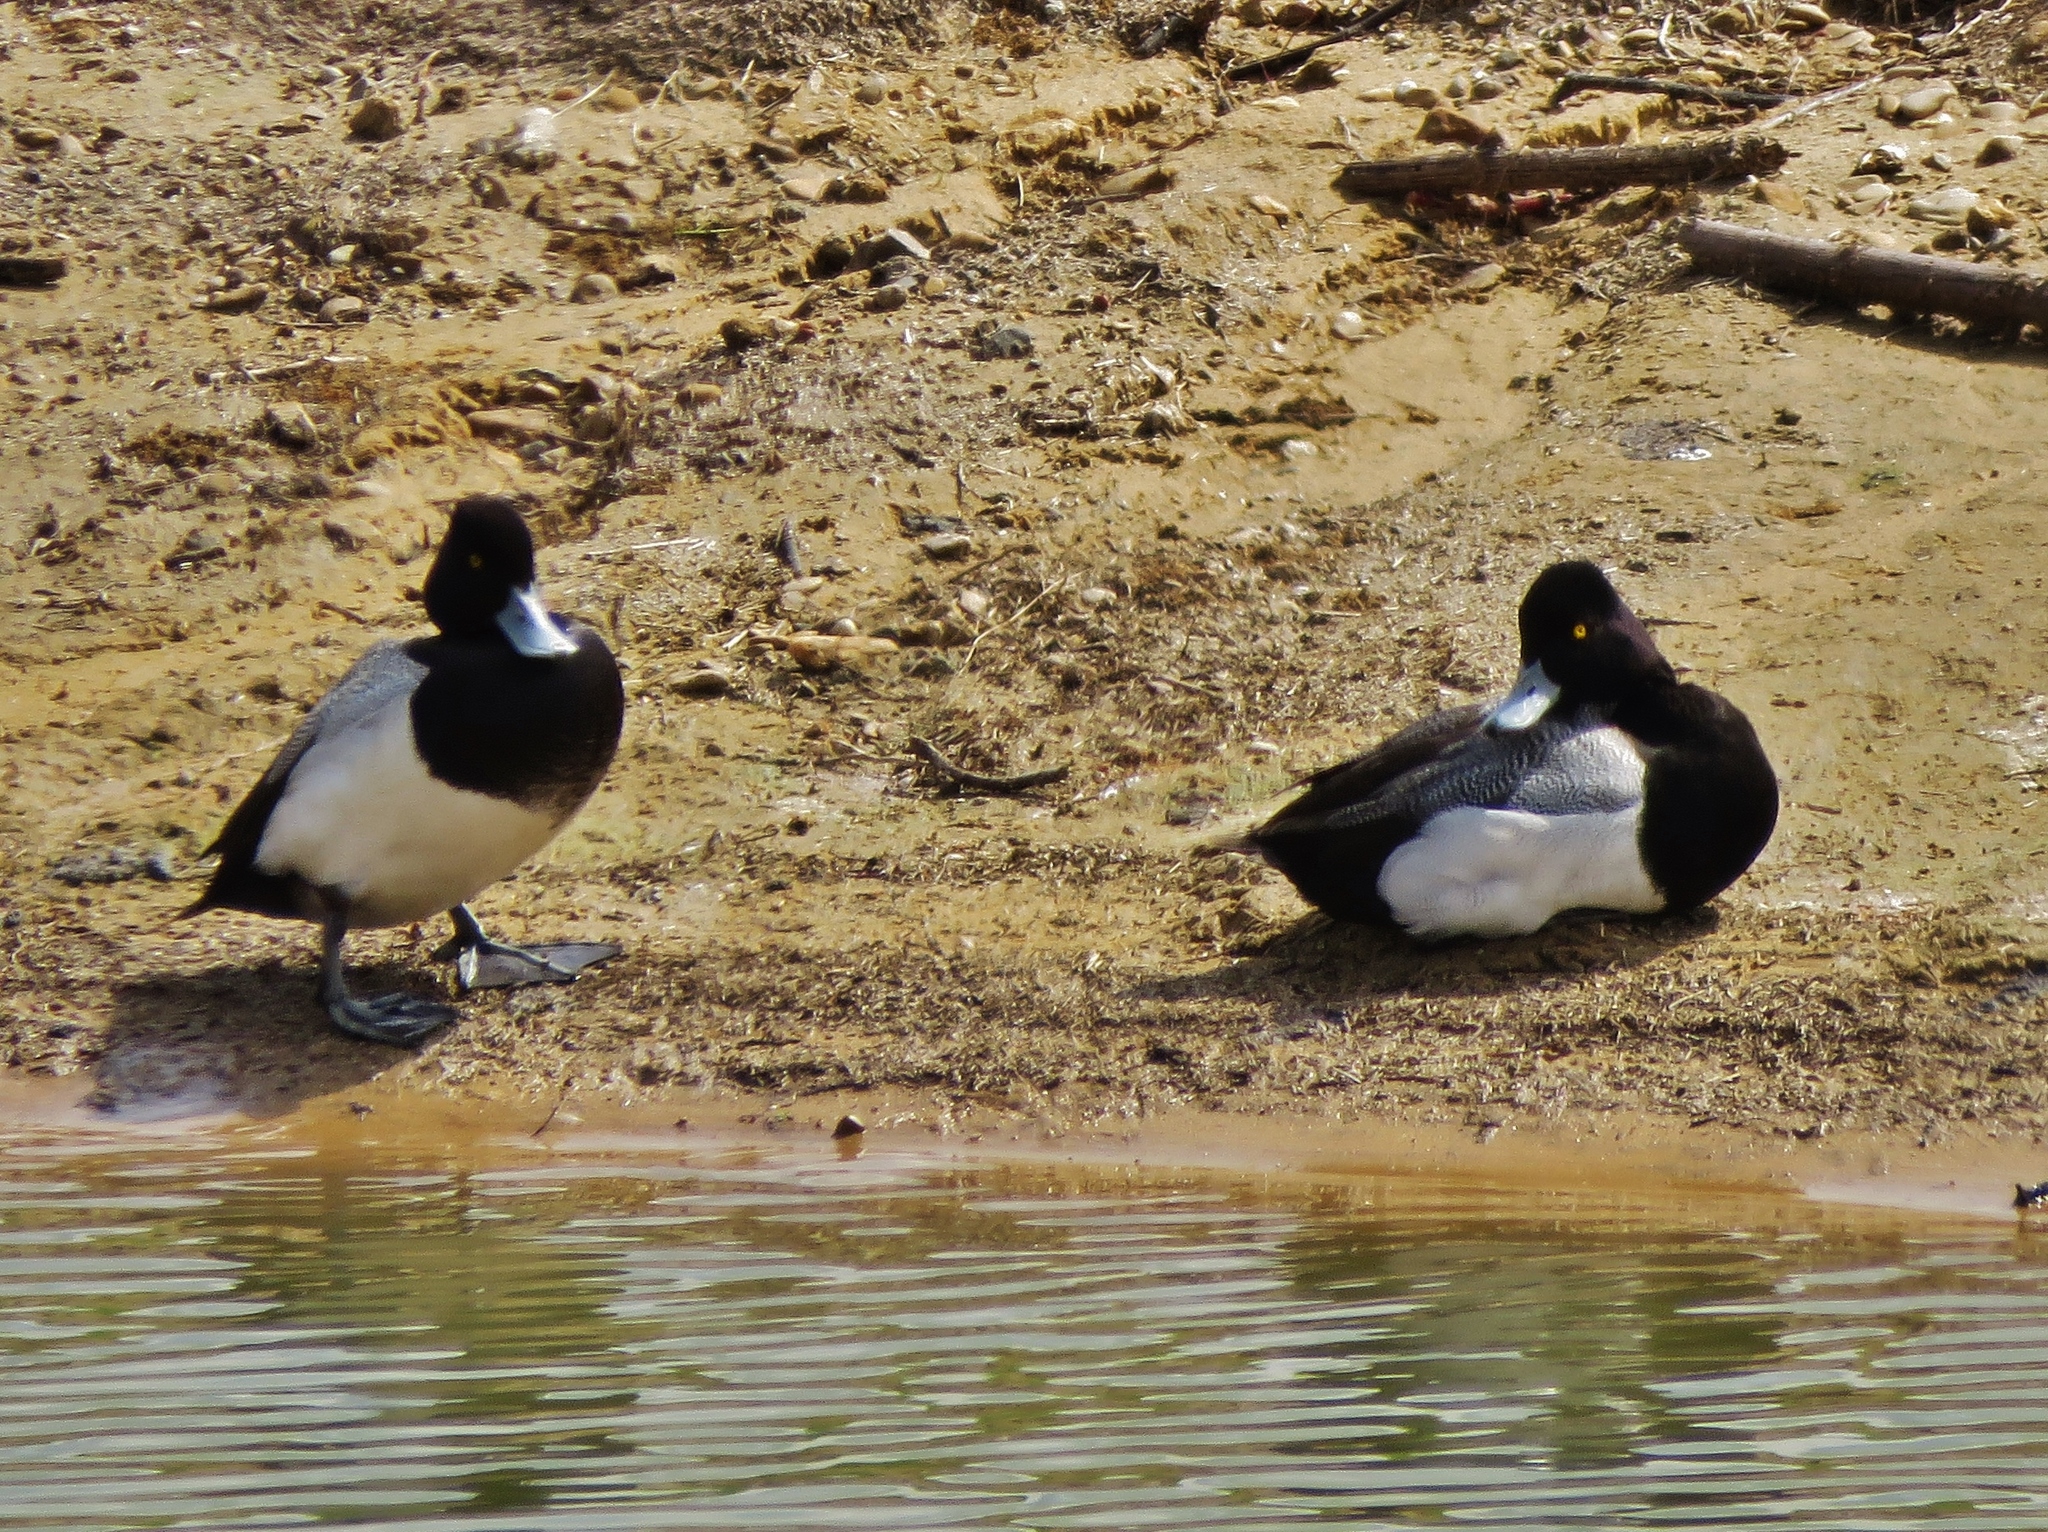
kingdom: Animalia
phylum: Chordata
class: Aves
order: Anseriformes
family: Anatidae
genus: Aythya
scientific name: Aythya affinis
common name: Lesser scaup
